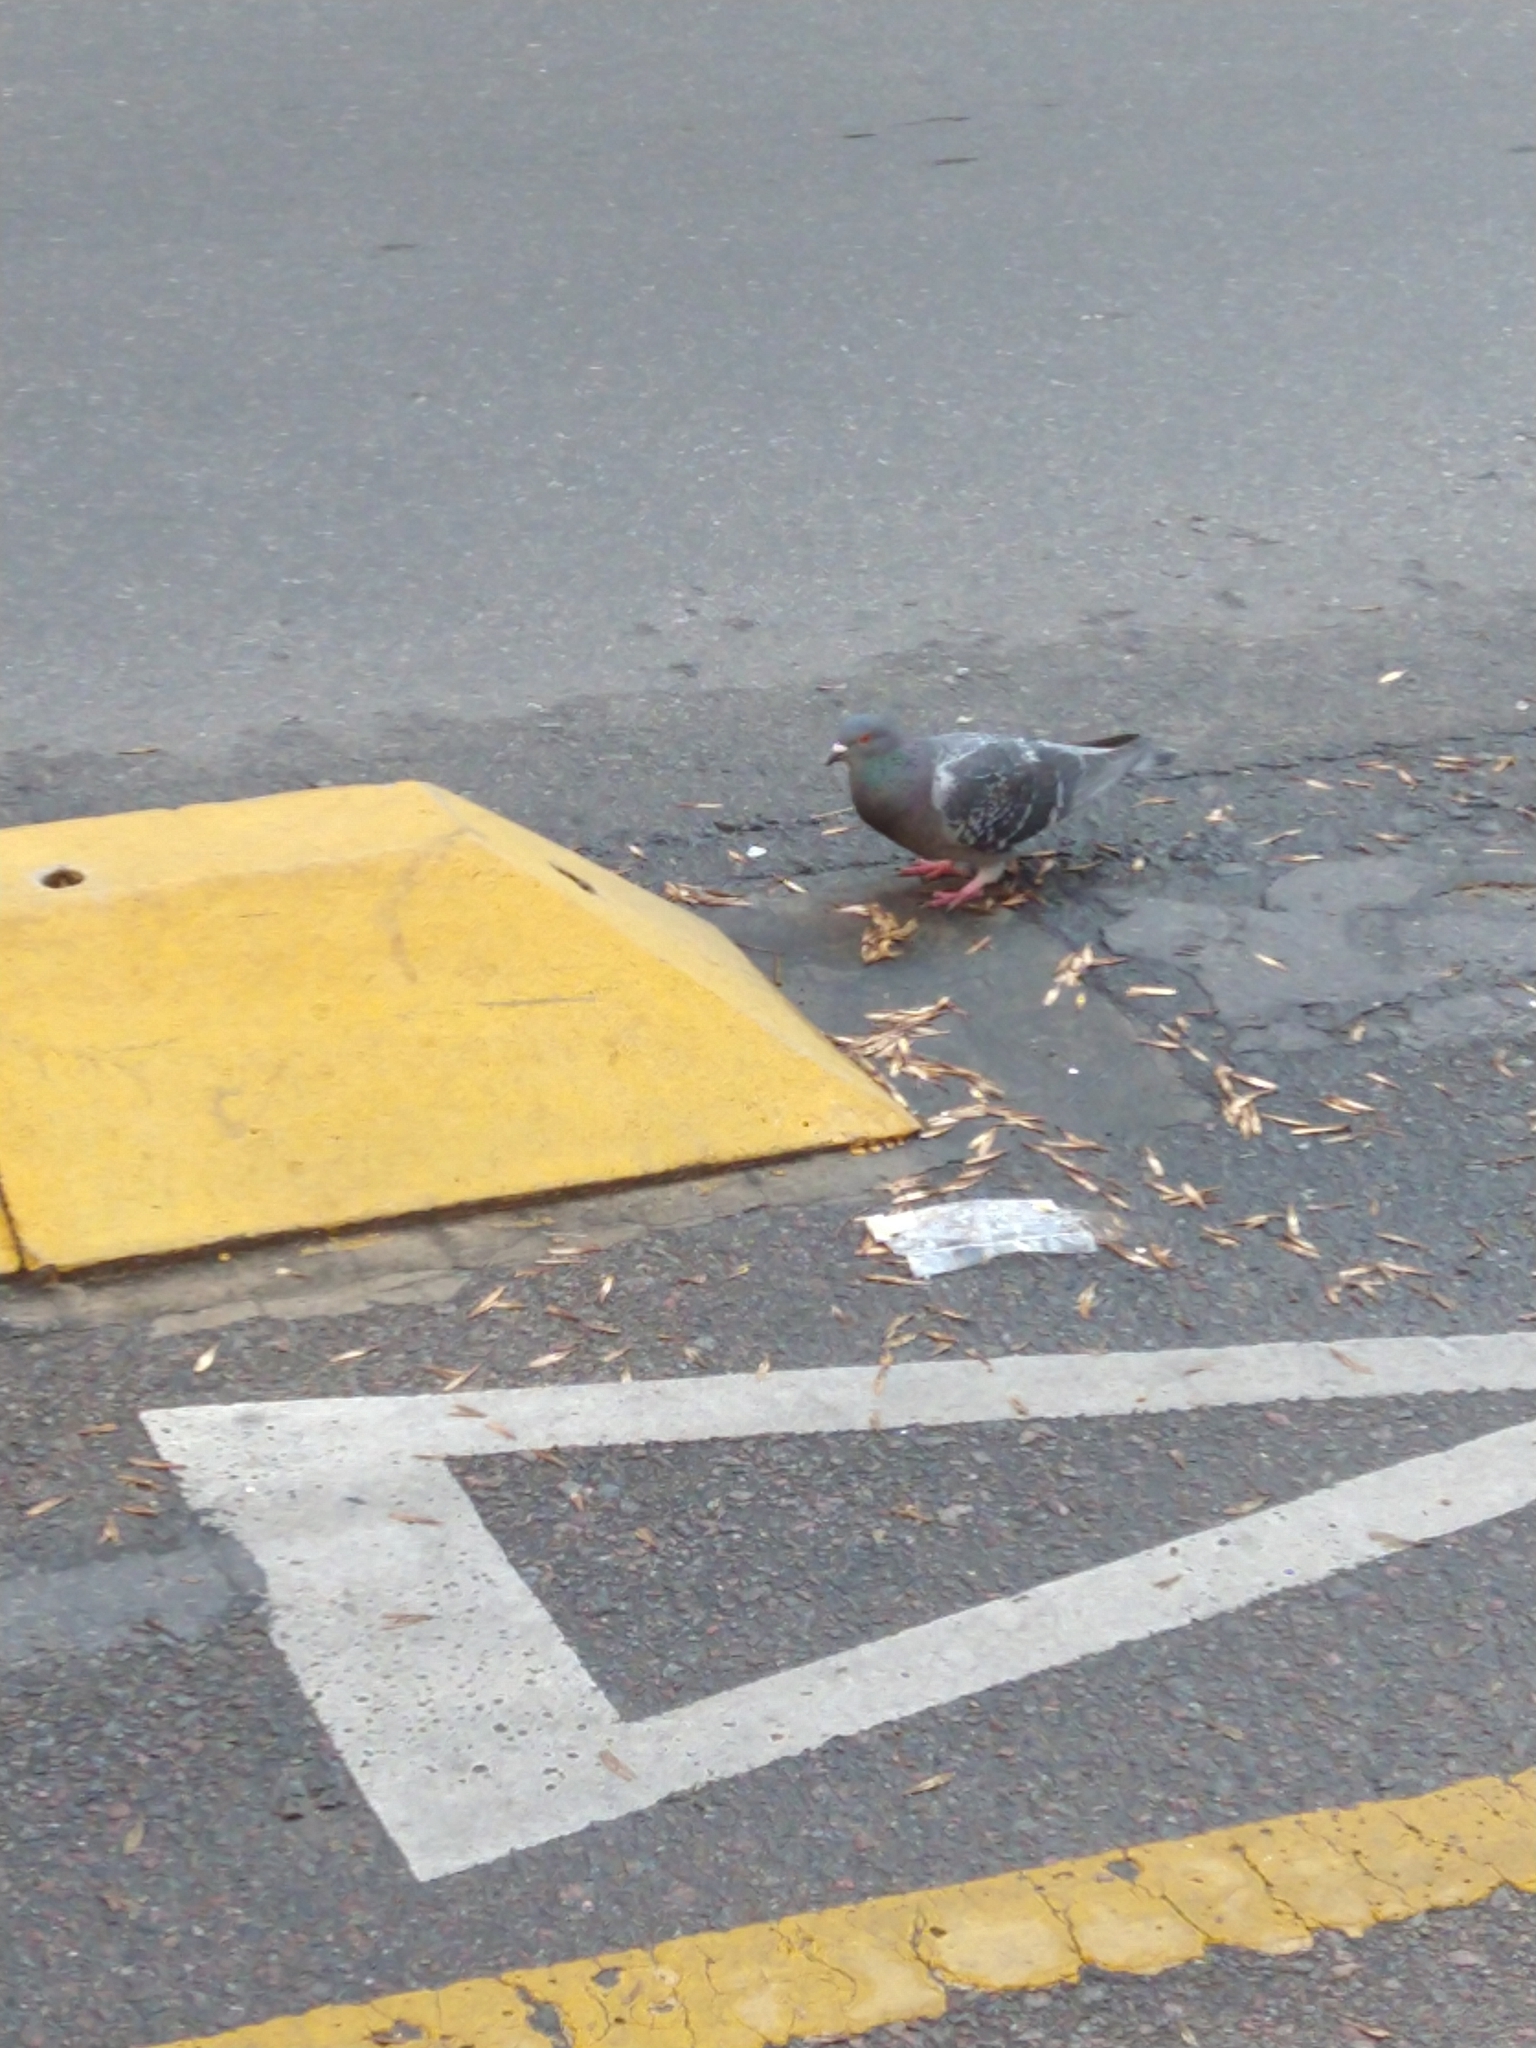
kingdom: Animalia
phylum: Chordata
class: Aves
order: Columbiformes
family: Columbidae
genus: Columba
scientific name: Columba livia
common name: Rock pigeon
